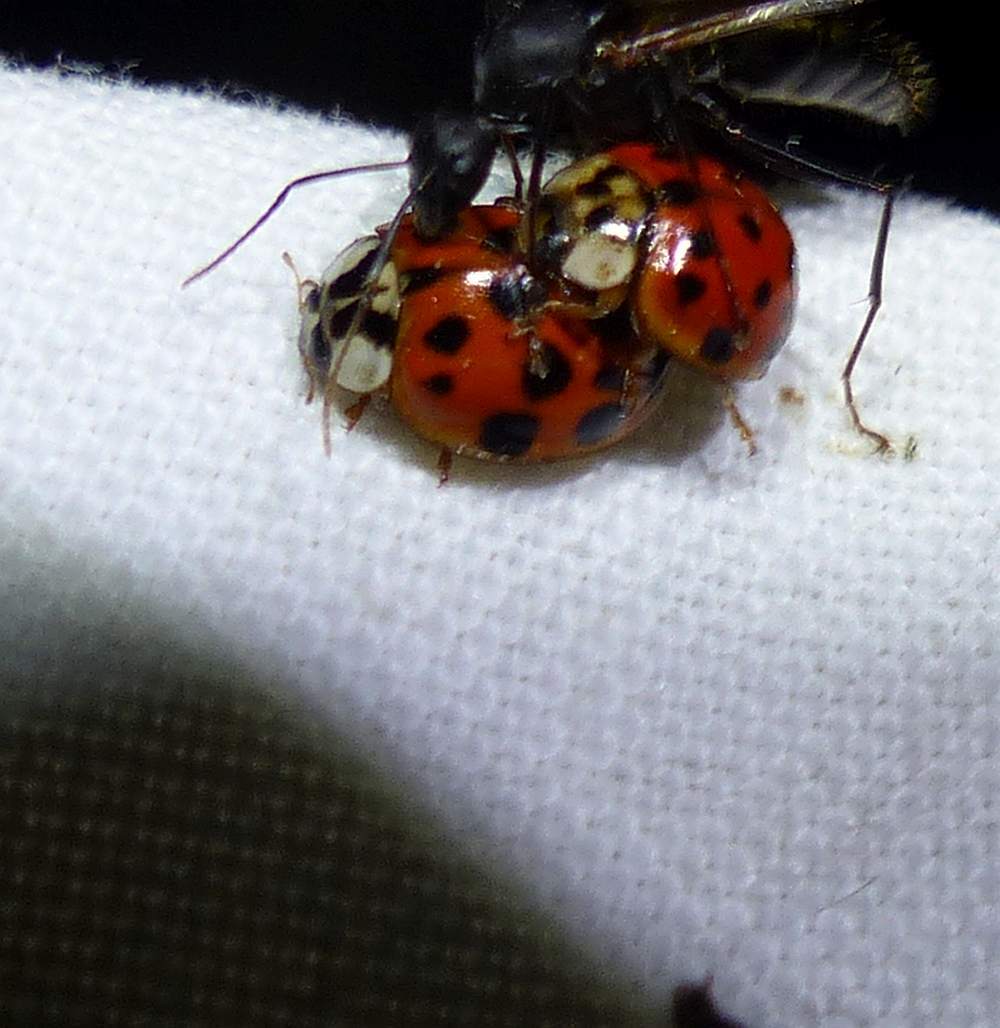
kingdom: Animalia
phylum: Arthropoda
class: Insecta
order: Coleoptera
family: Coccinellidae
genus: Harmonia
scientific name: Harmonia axyridis
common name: Harlequin ladybird
